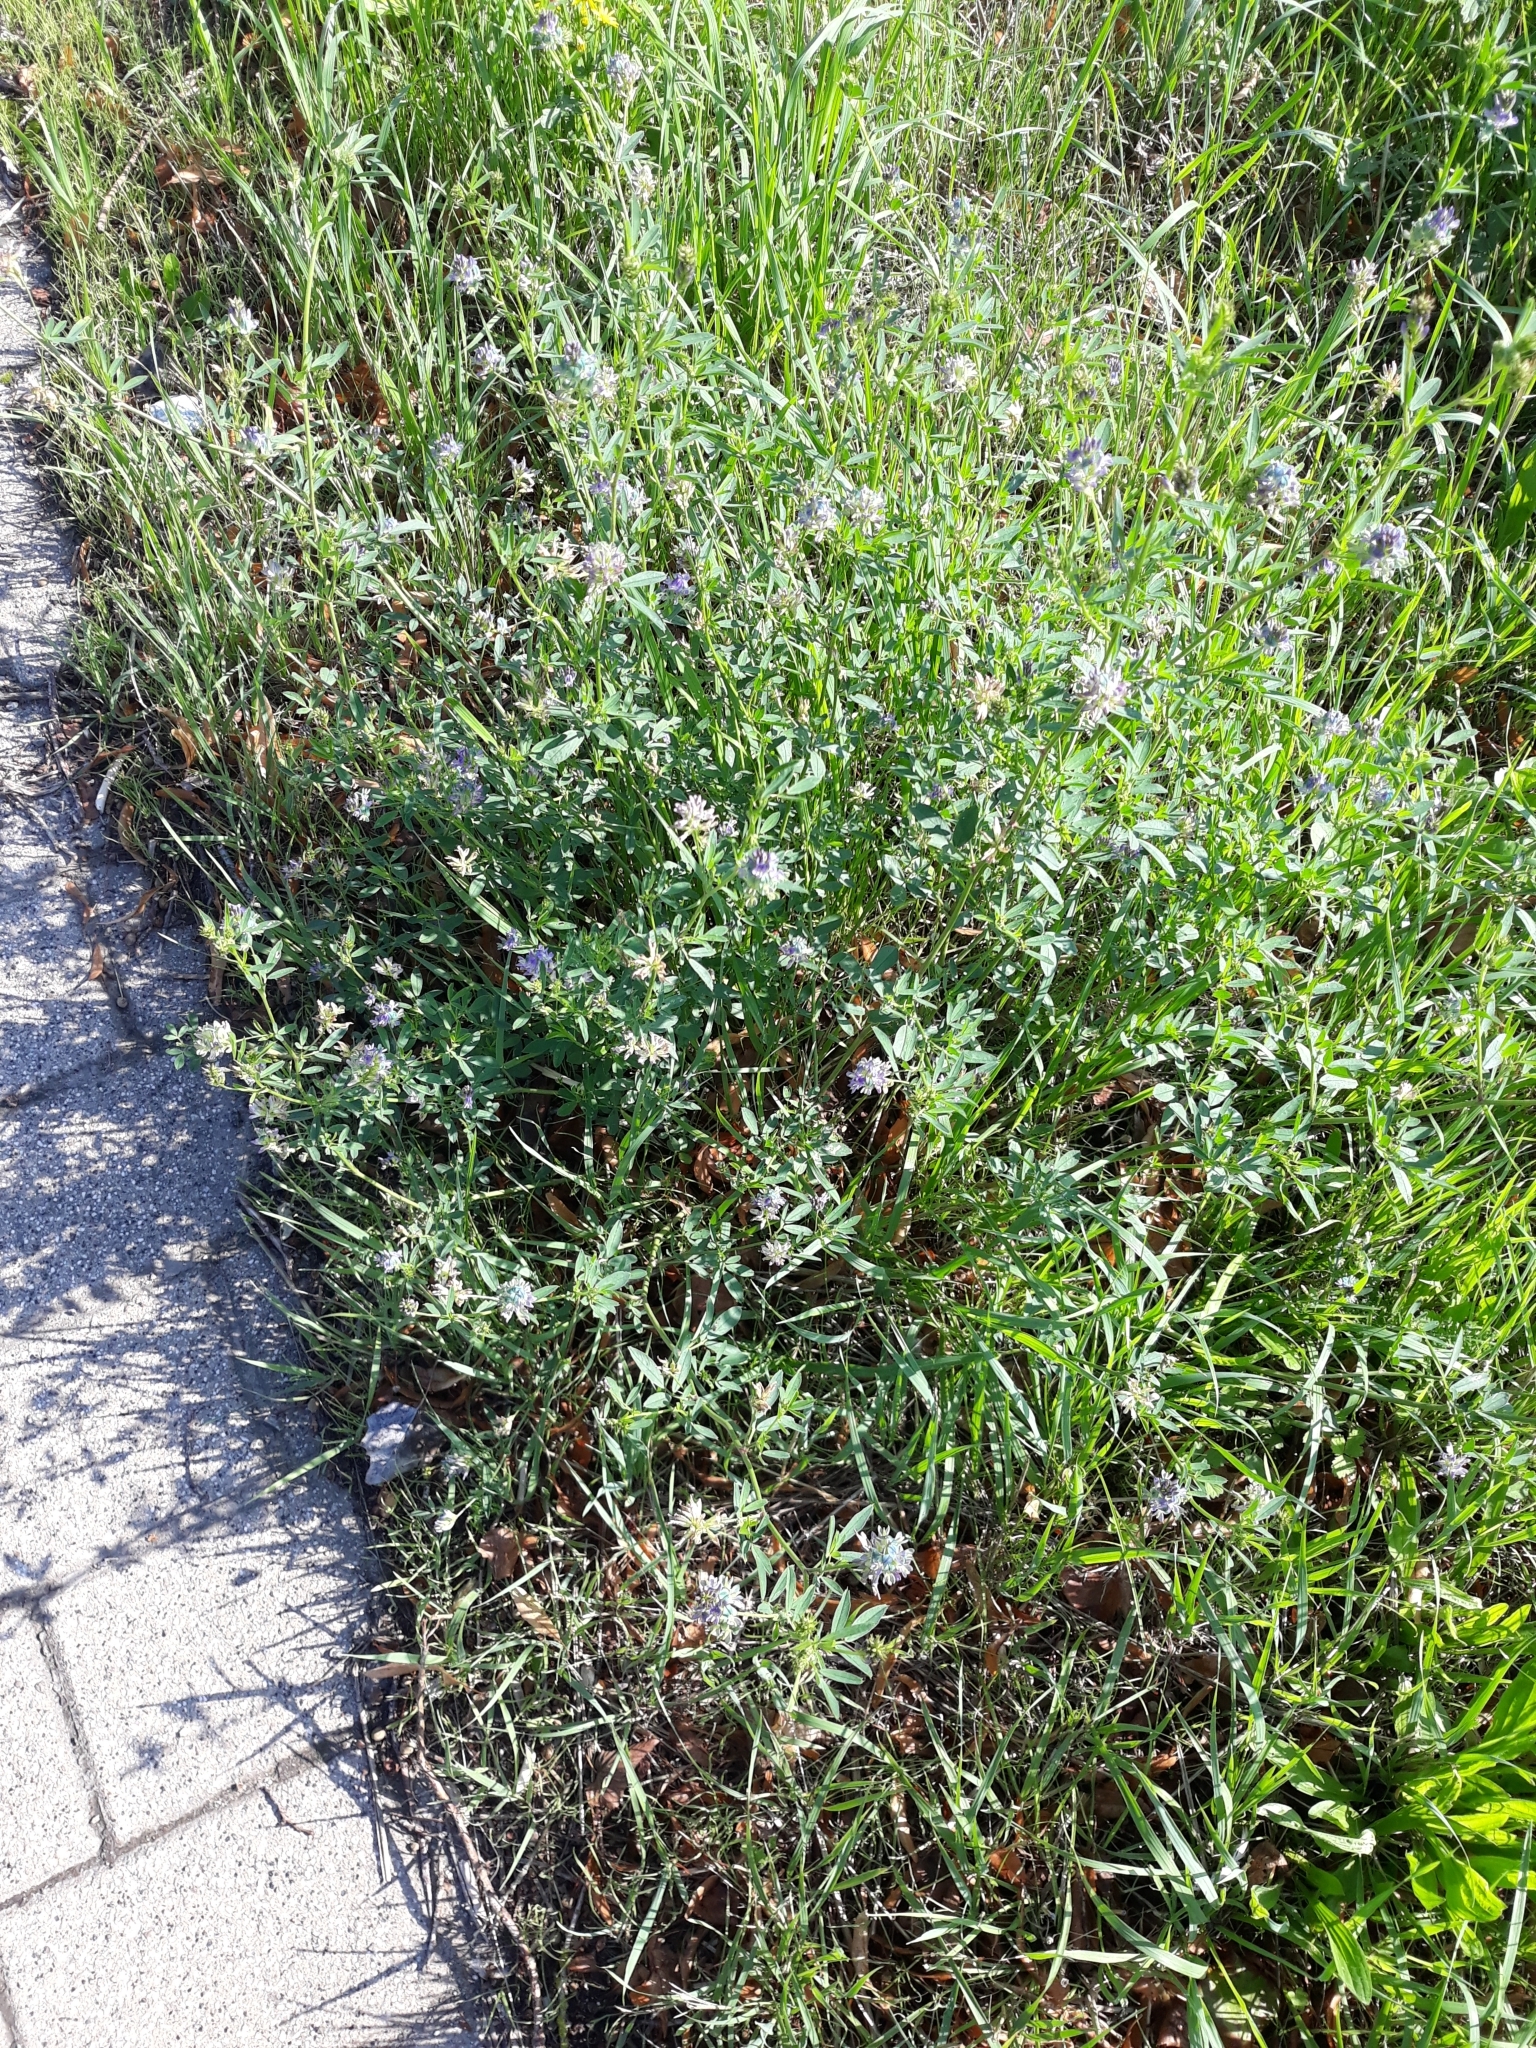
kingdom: Plantae
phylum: Tracheophyta
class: Magnoliopsida
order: Fabales
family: Fabaceae
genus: Medicago
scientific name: Medicago varia
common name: Sand lucerne
